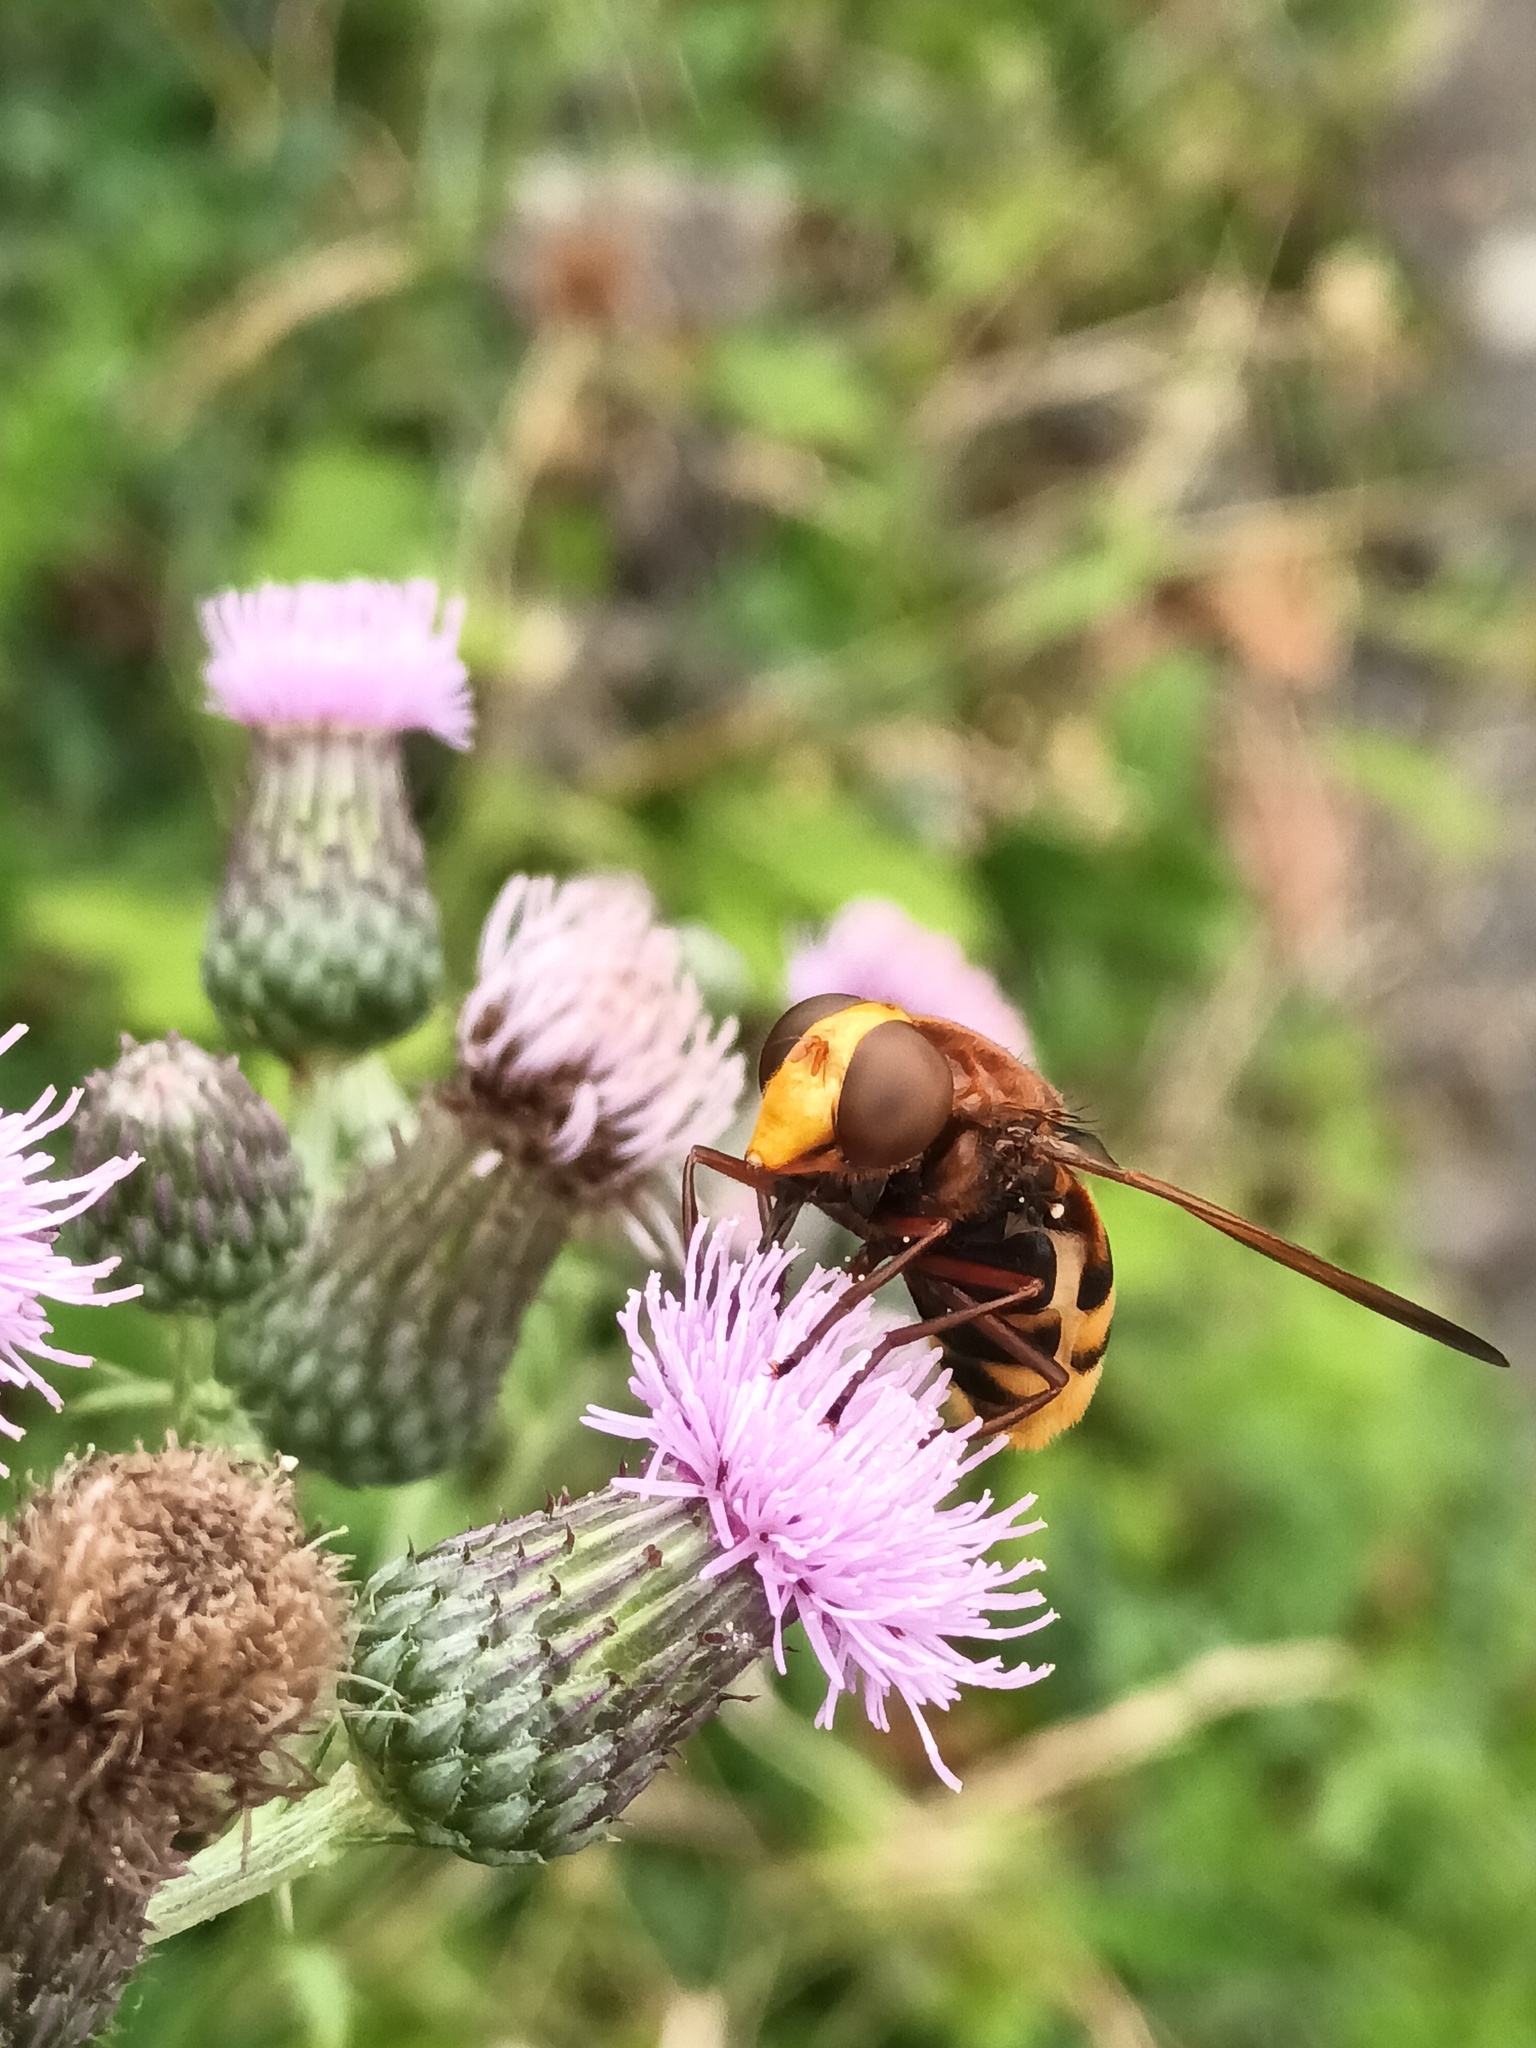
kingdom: Animalia
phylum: Arthropoda
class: Insecta
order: Diptera
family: Syrphidae
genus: Volucella
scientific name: Volucella zonaria
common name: Hornet hoverfly
